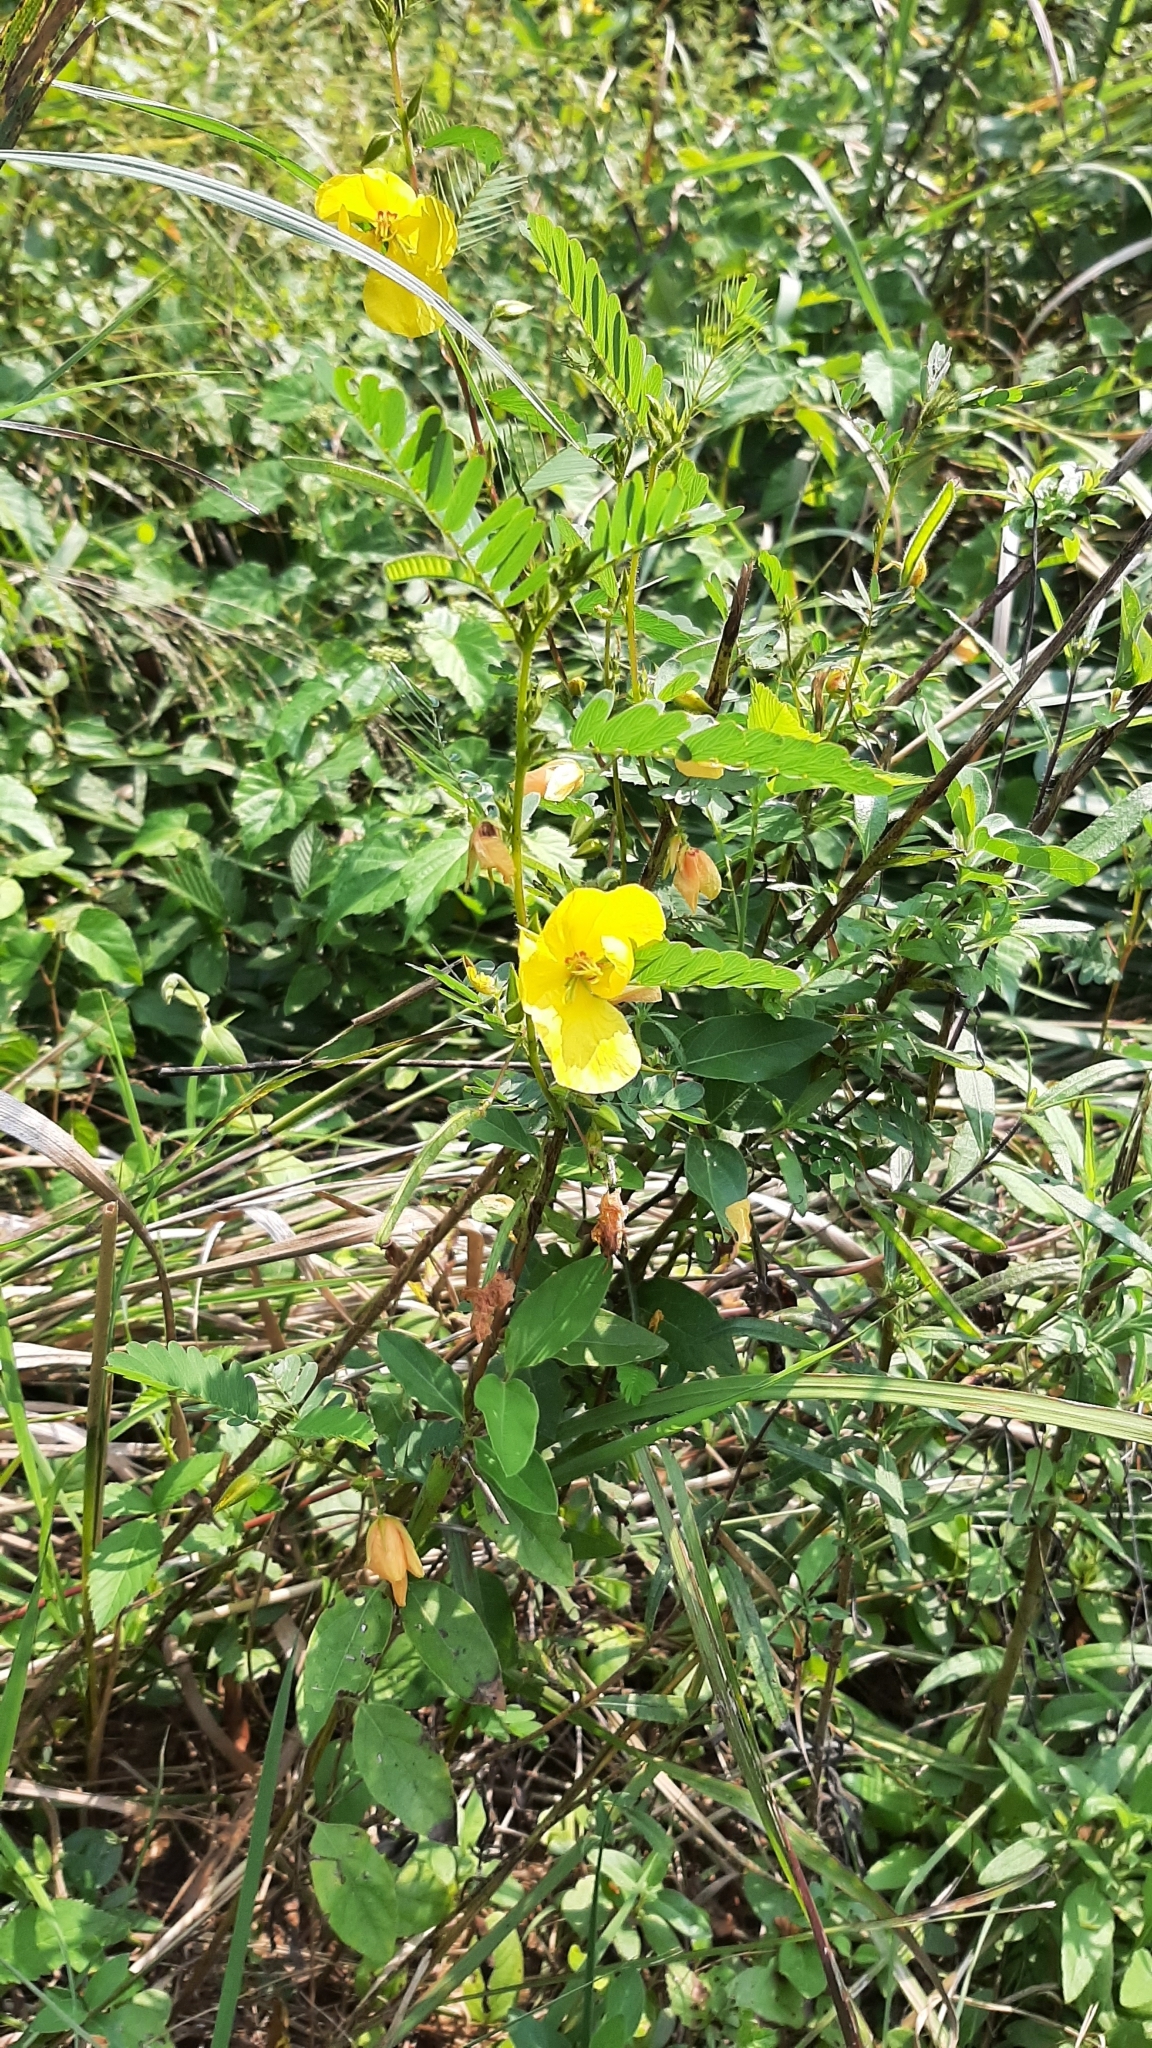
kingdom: Plantae
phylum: Tracheophyta
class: Magnoliopsida
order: Fabales
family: Fabaceae
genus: Chamaecrista
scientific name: Chamaecrista fasciculata
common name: Golden cassia
